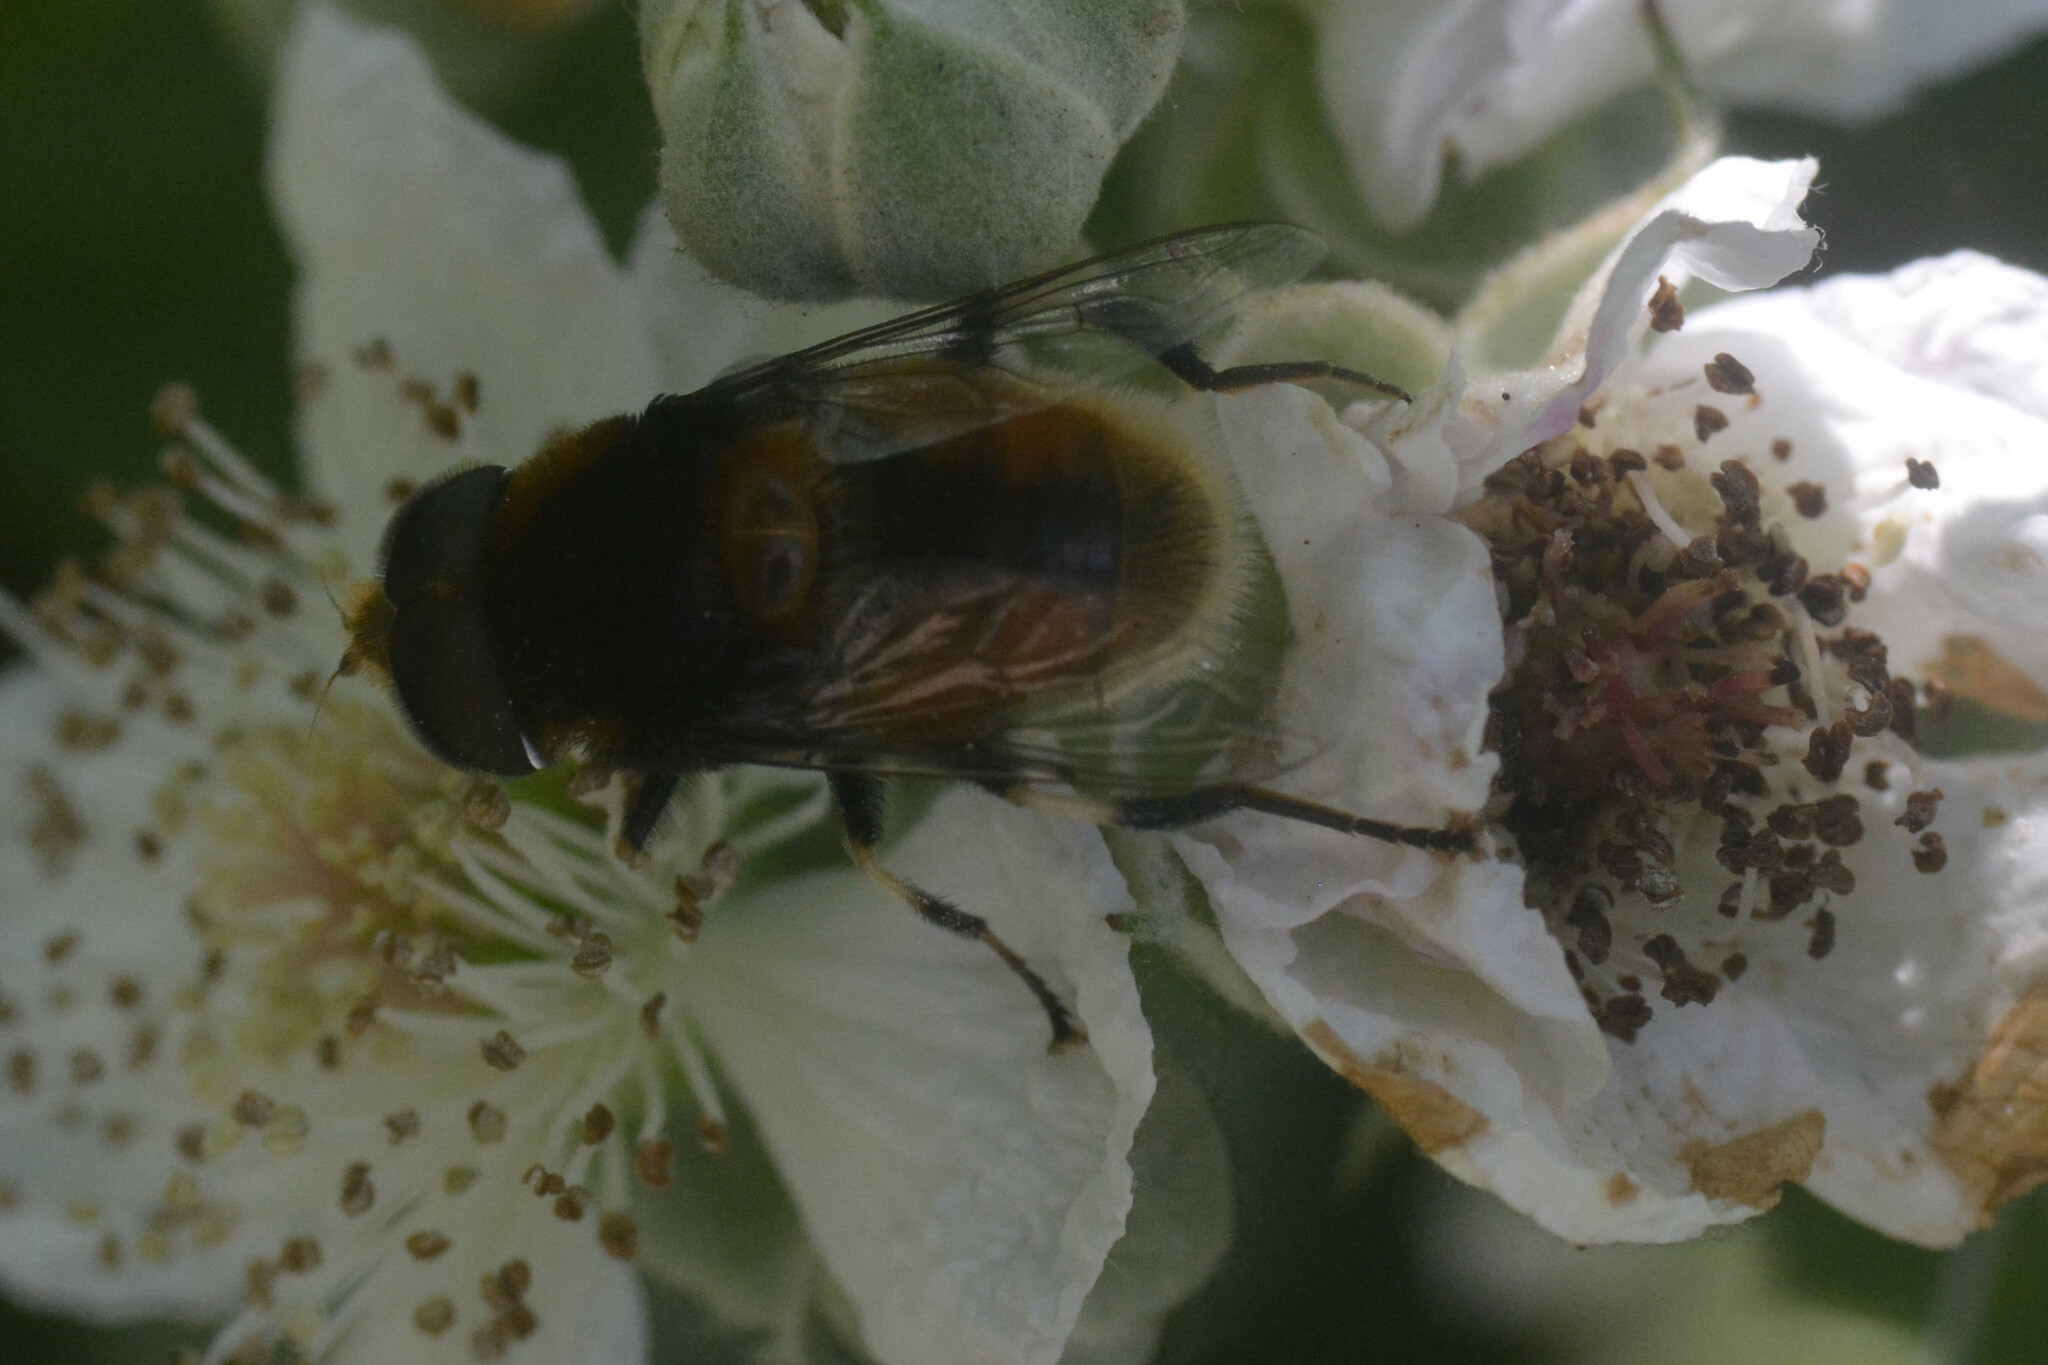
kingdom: Animalia
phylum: Arthropoda
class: Insecta
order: Diptera
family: Syrphidae
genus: Eristalis
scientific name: Eristalis intricaria
